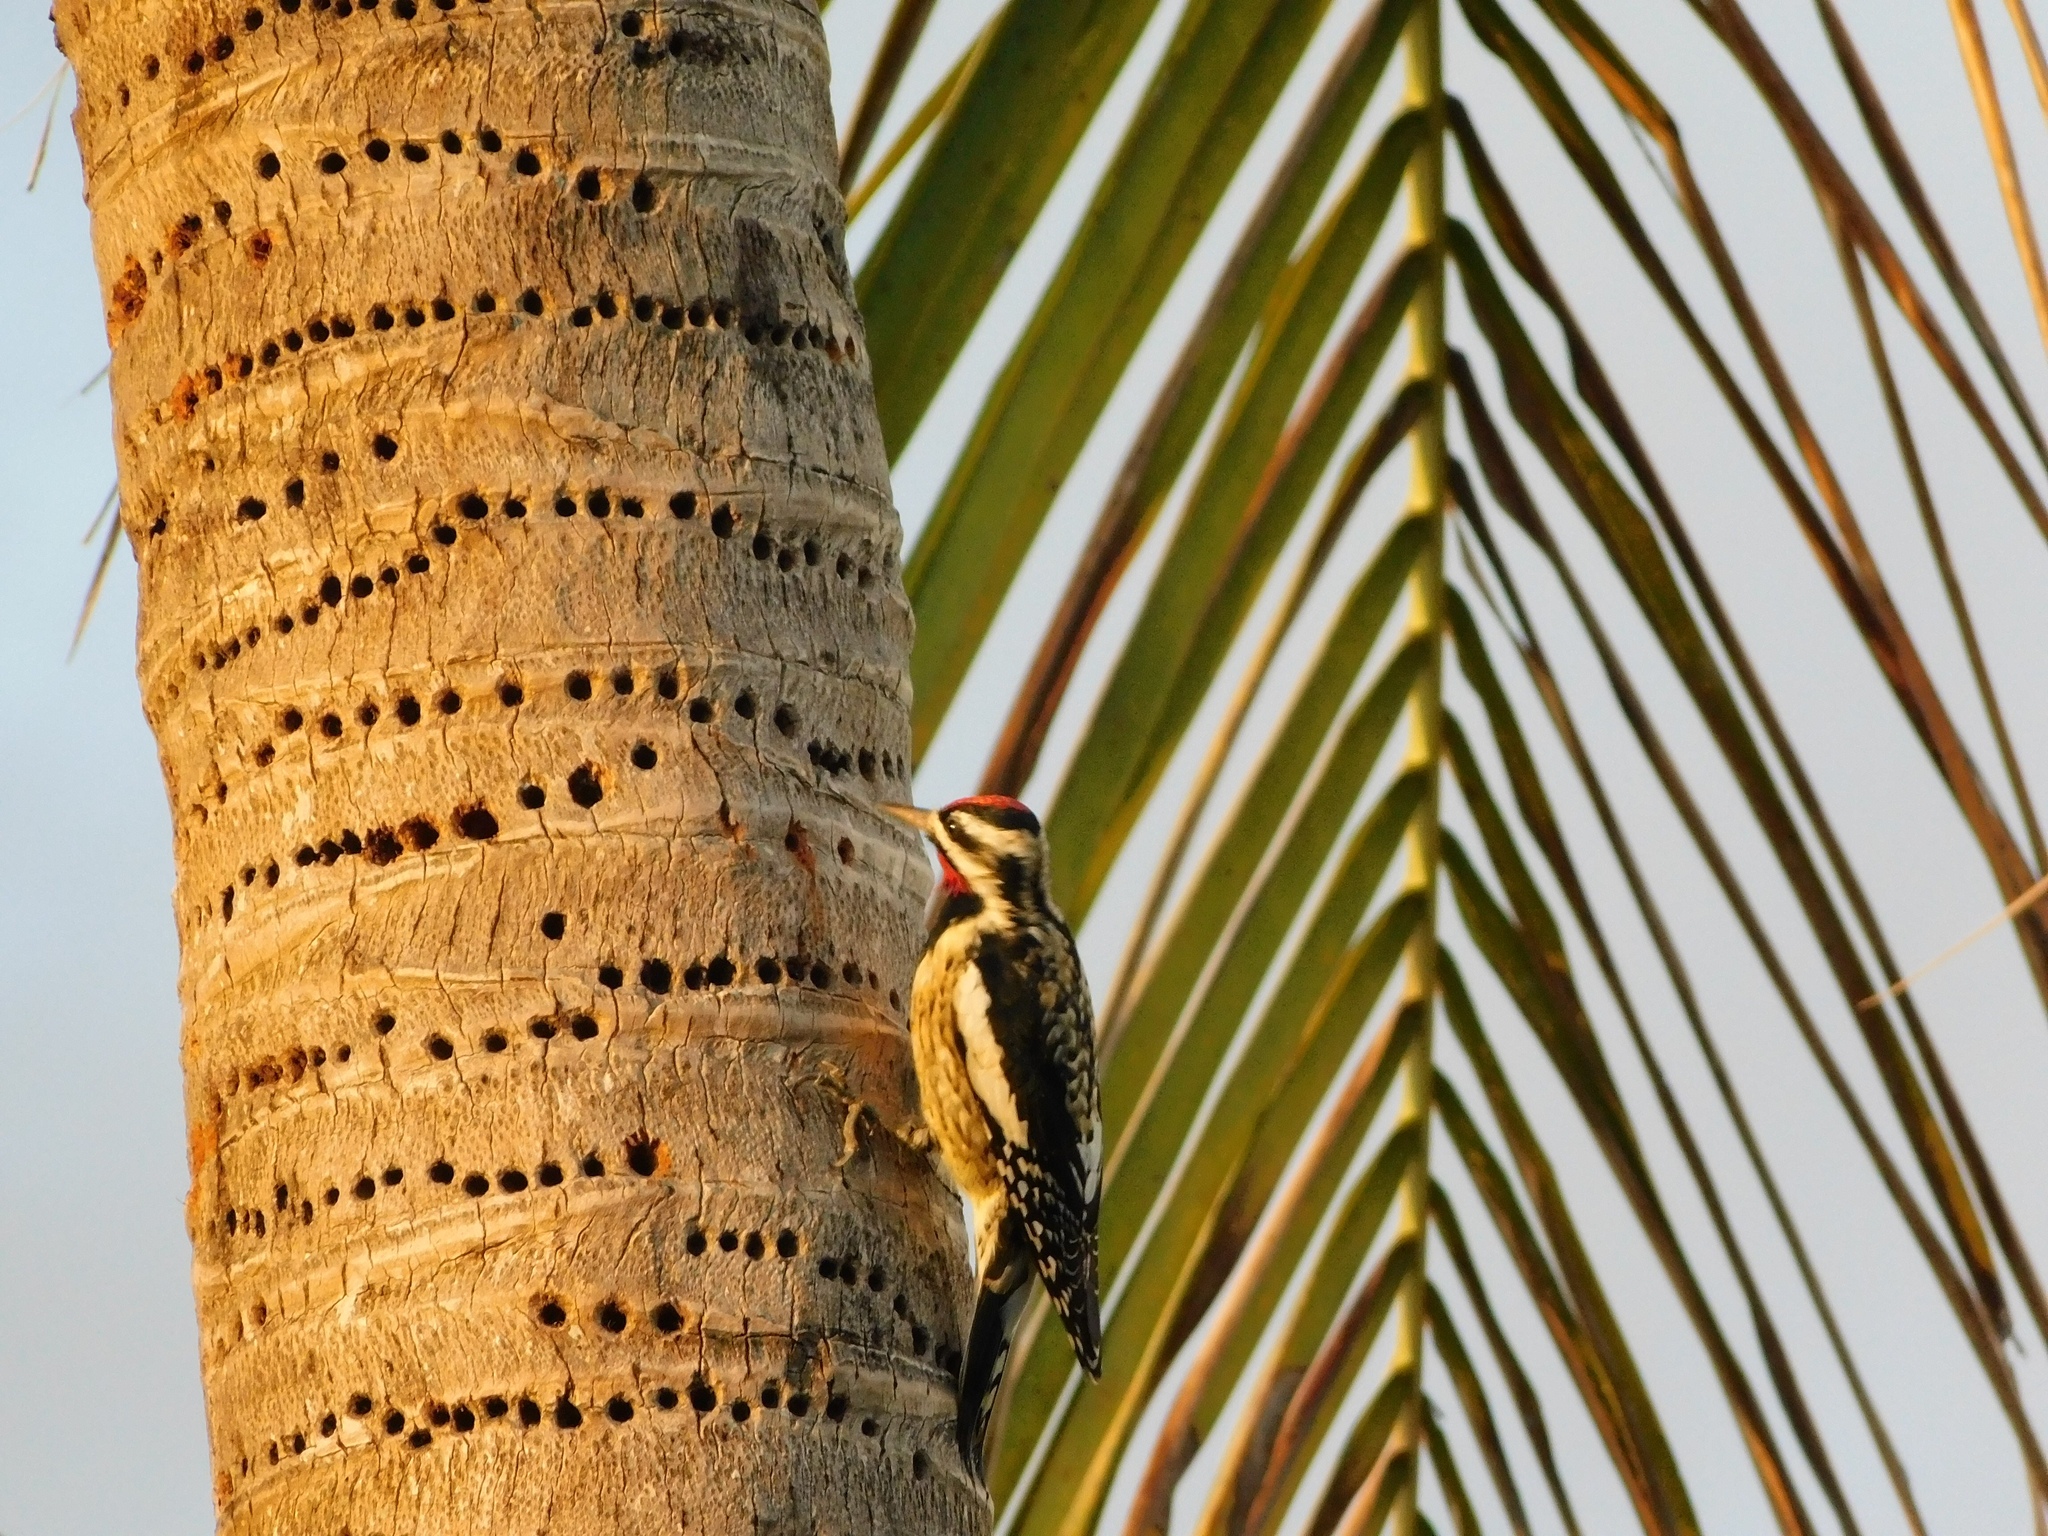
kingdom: Animalia
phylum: Chordata
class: Aves
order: Piciformes
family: Picidae
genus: Sphyrapicus
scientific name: Sphyrapicus varius
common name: Yellow-bellied sapsucker
